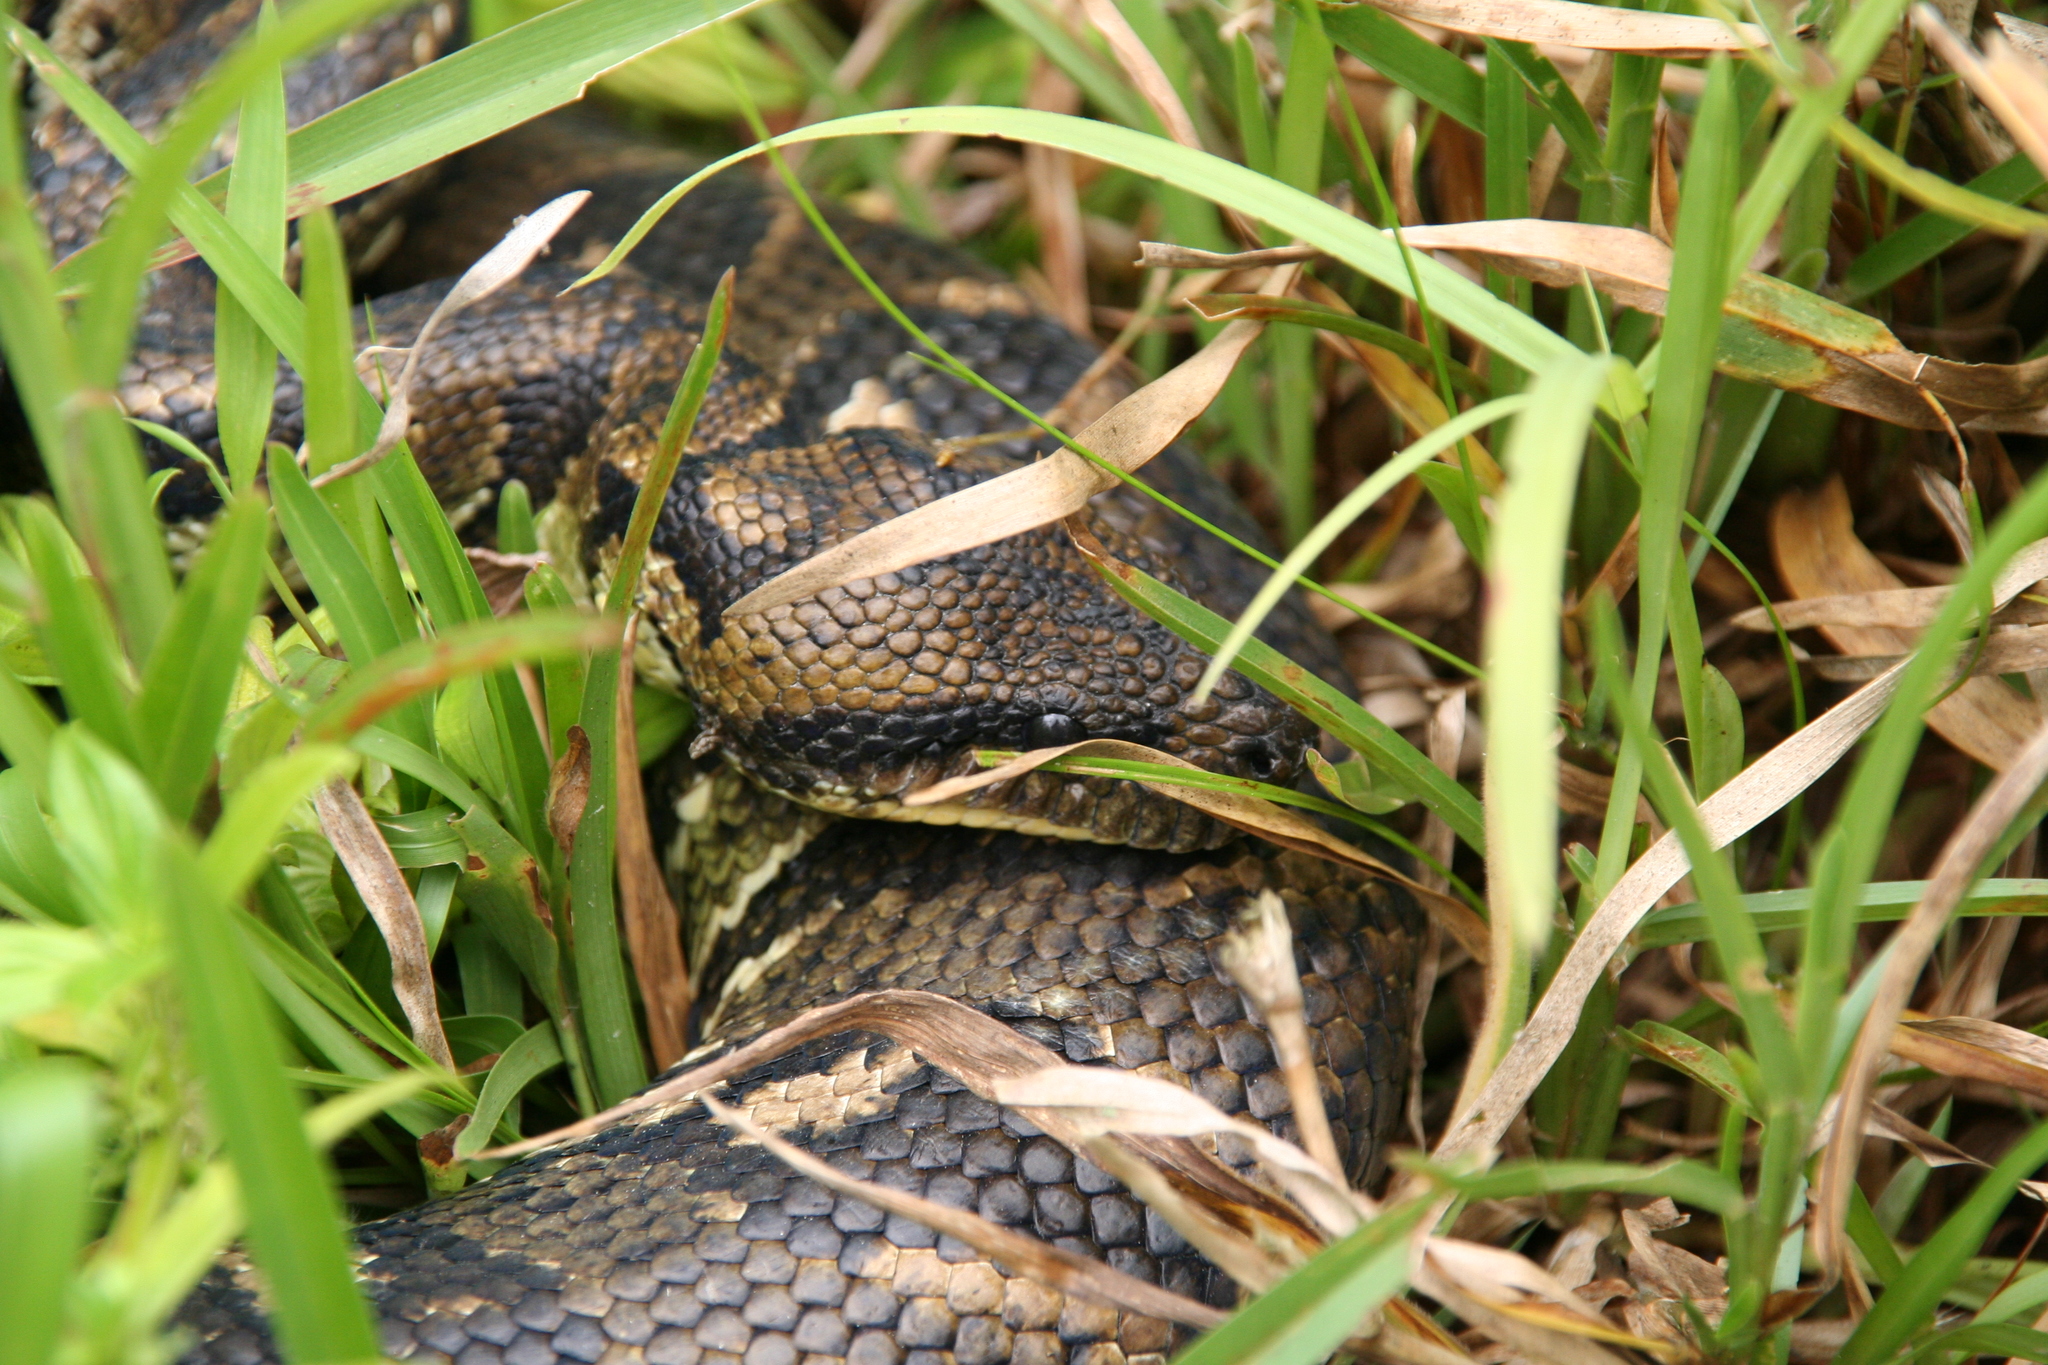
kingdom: Animalia
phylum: Chordata
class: Squamata
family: Boidae
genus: Sanzinia
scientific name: Sanzinia madagascariensis
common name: Madagascar tree boa
